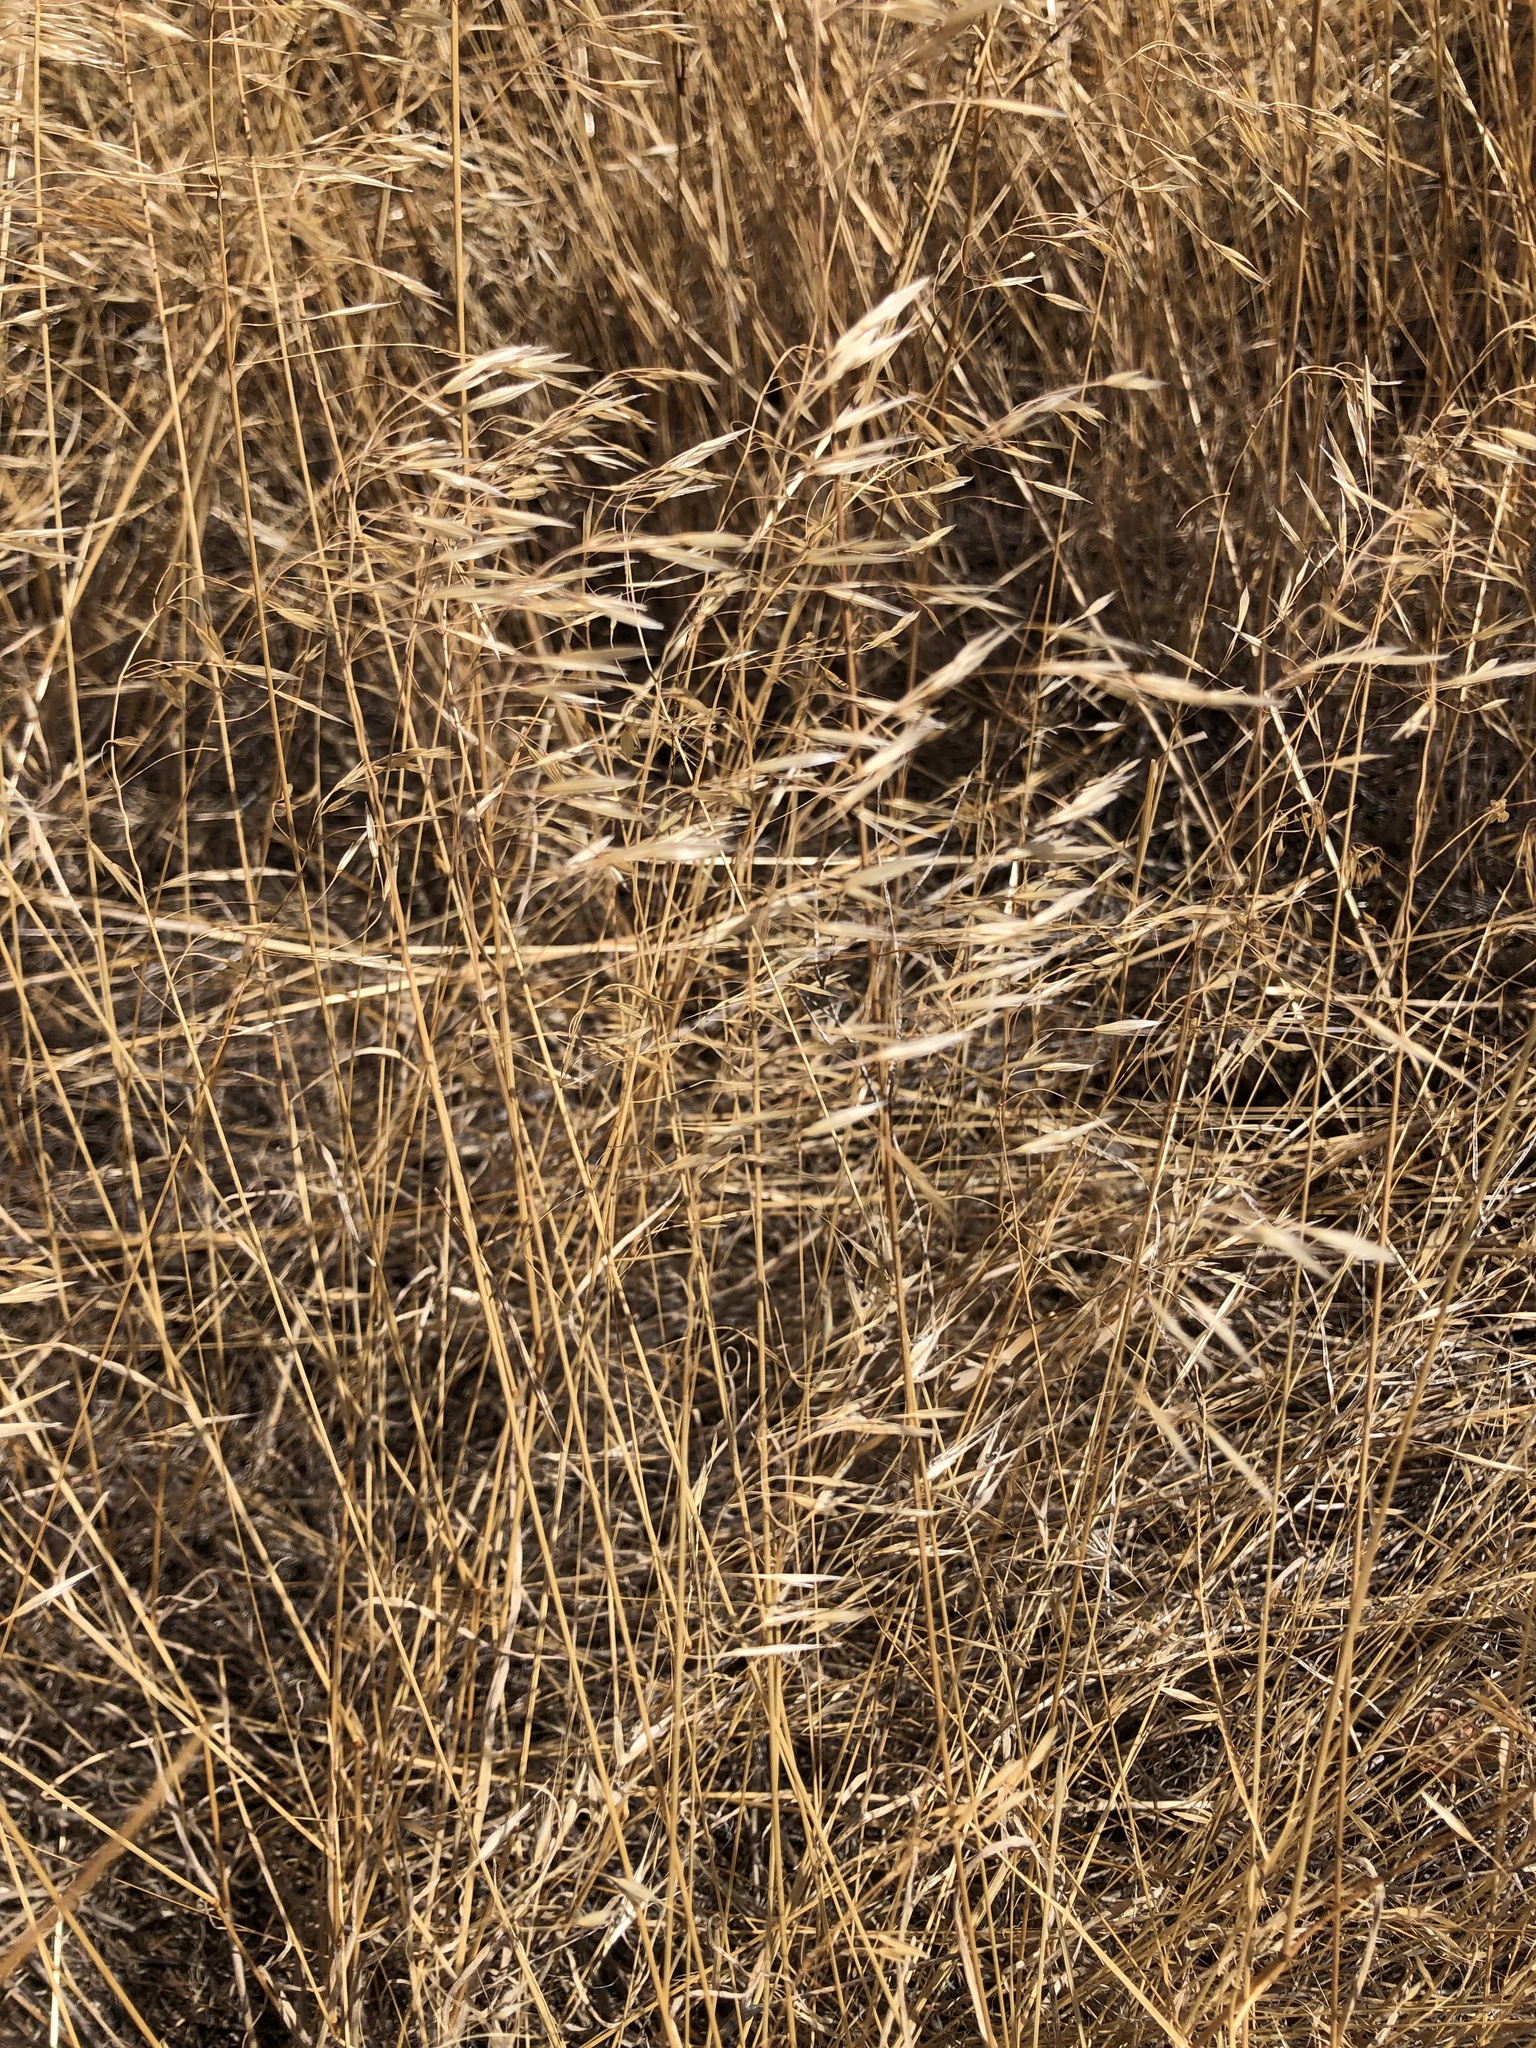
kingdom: Plantae
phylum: Tracheophyta
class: Liliopsida
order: Poales
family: Poaceae
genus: Bromus
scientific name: Bromus tectorum
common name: Cheatgrass
